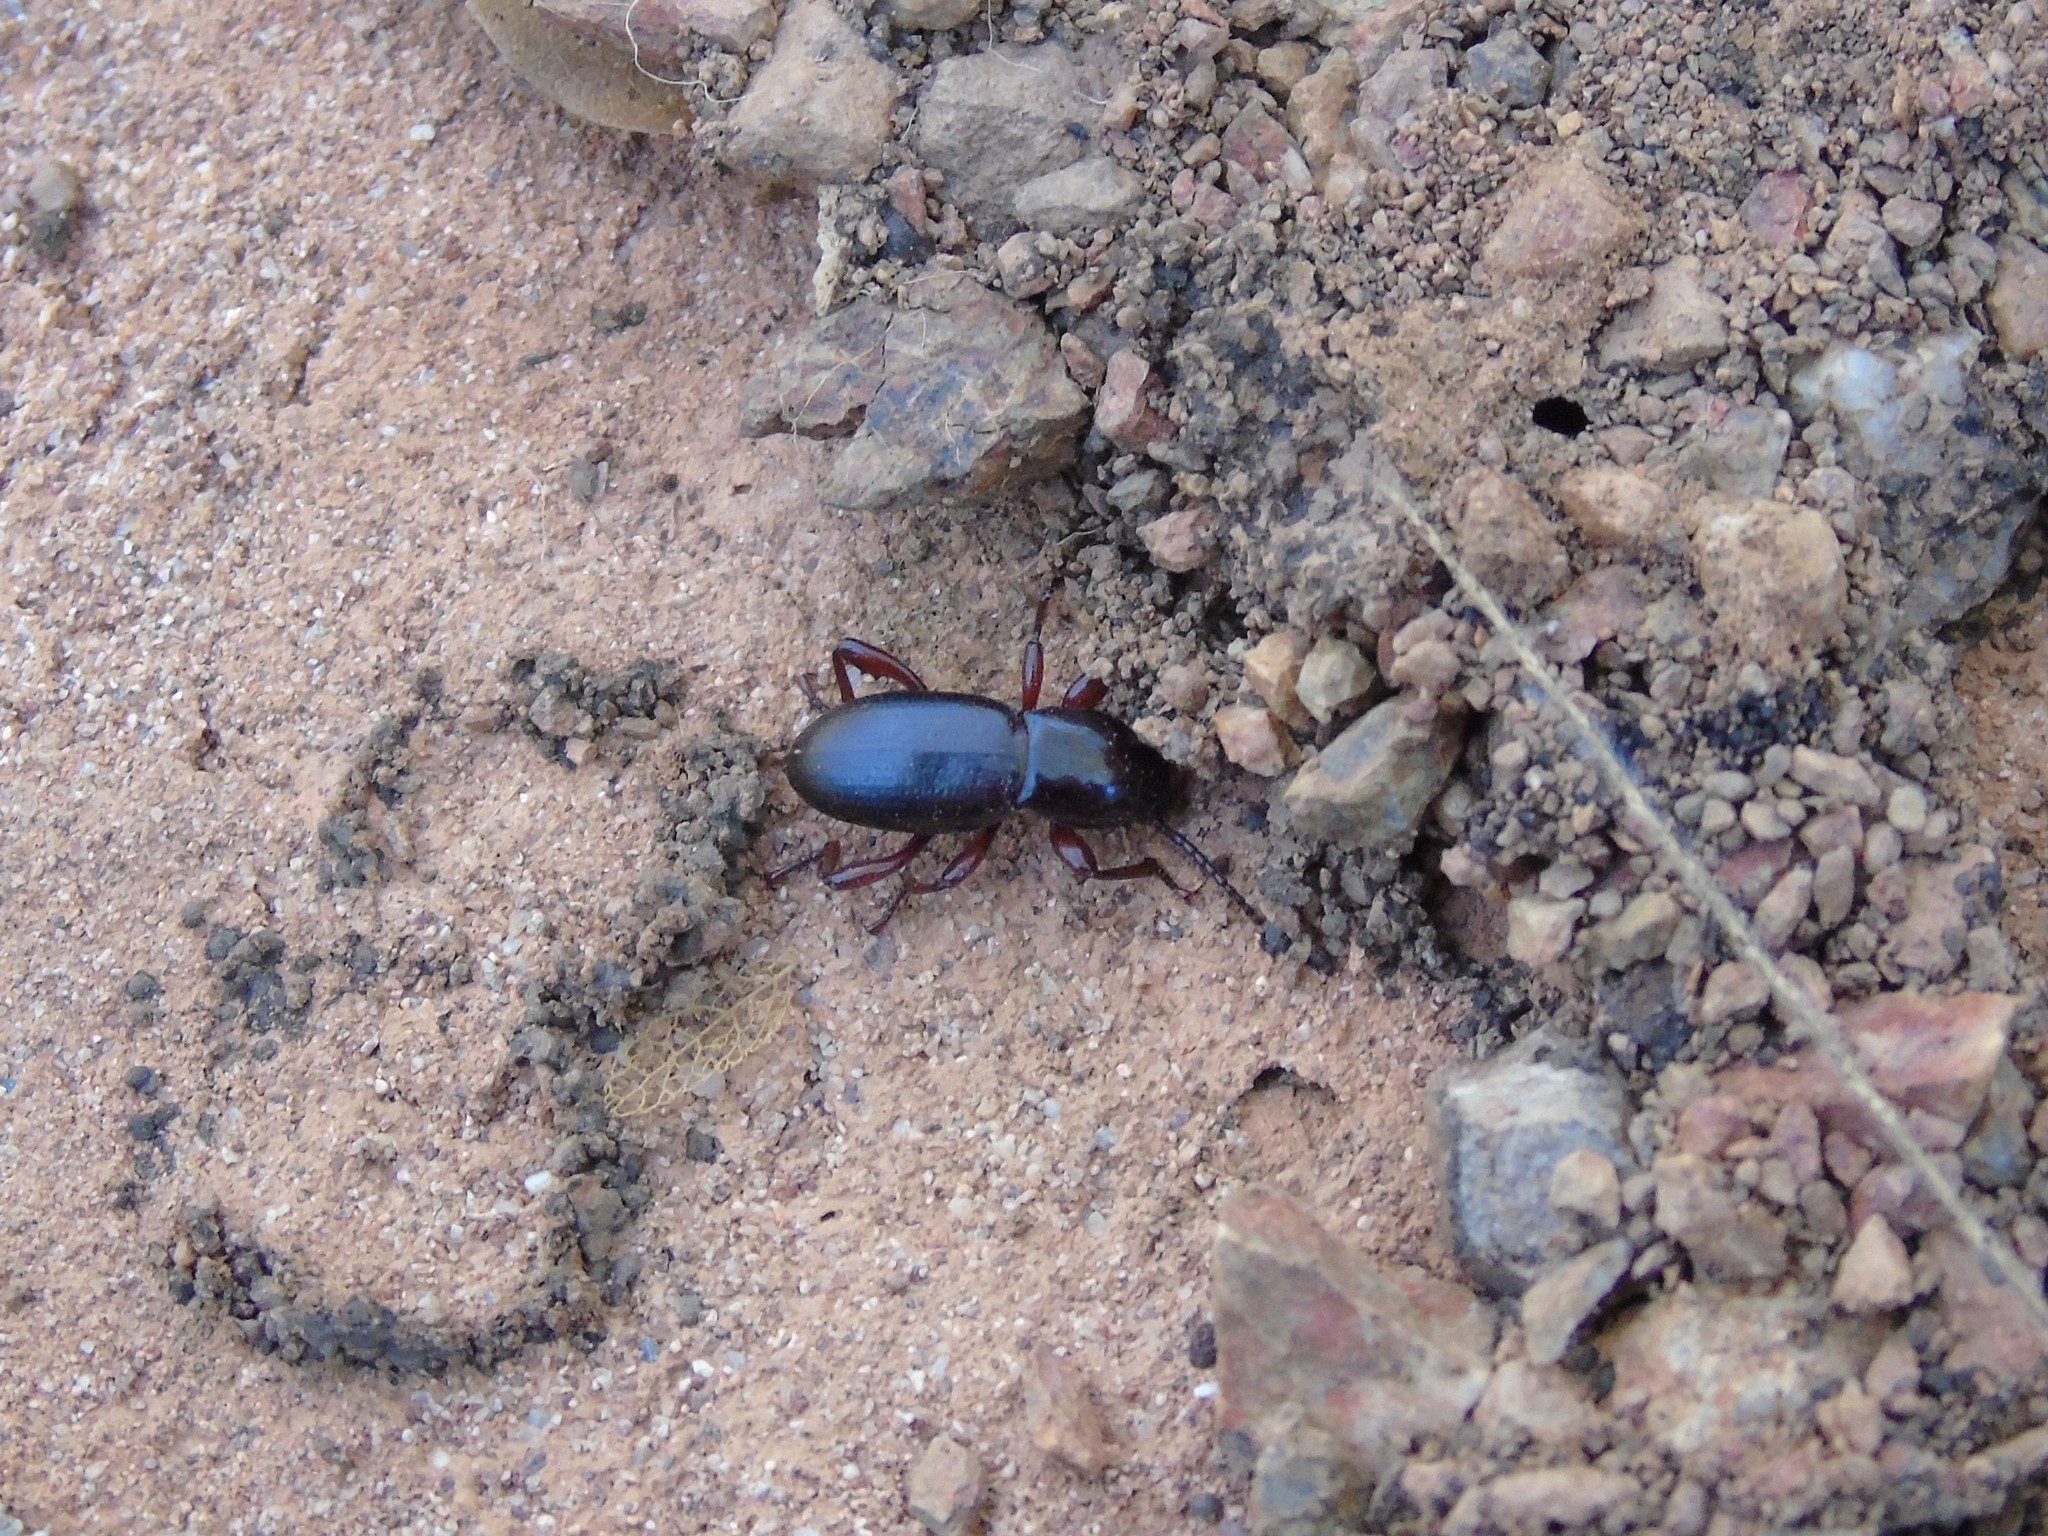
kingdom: Animalia
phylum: Arthropoda
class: Insecta
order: Coleoptera
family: Tenebrionidae
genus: Argoporis
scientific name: Argoporis
